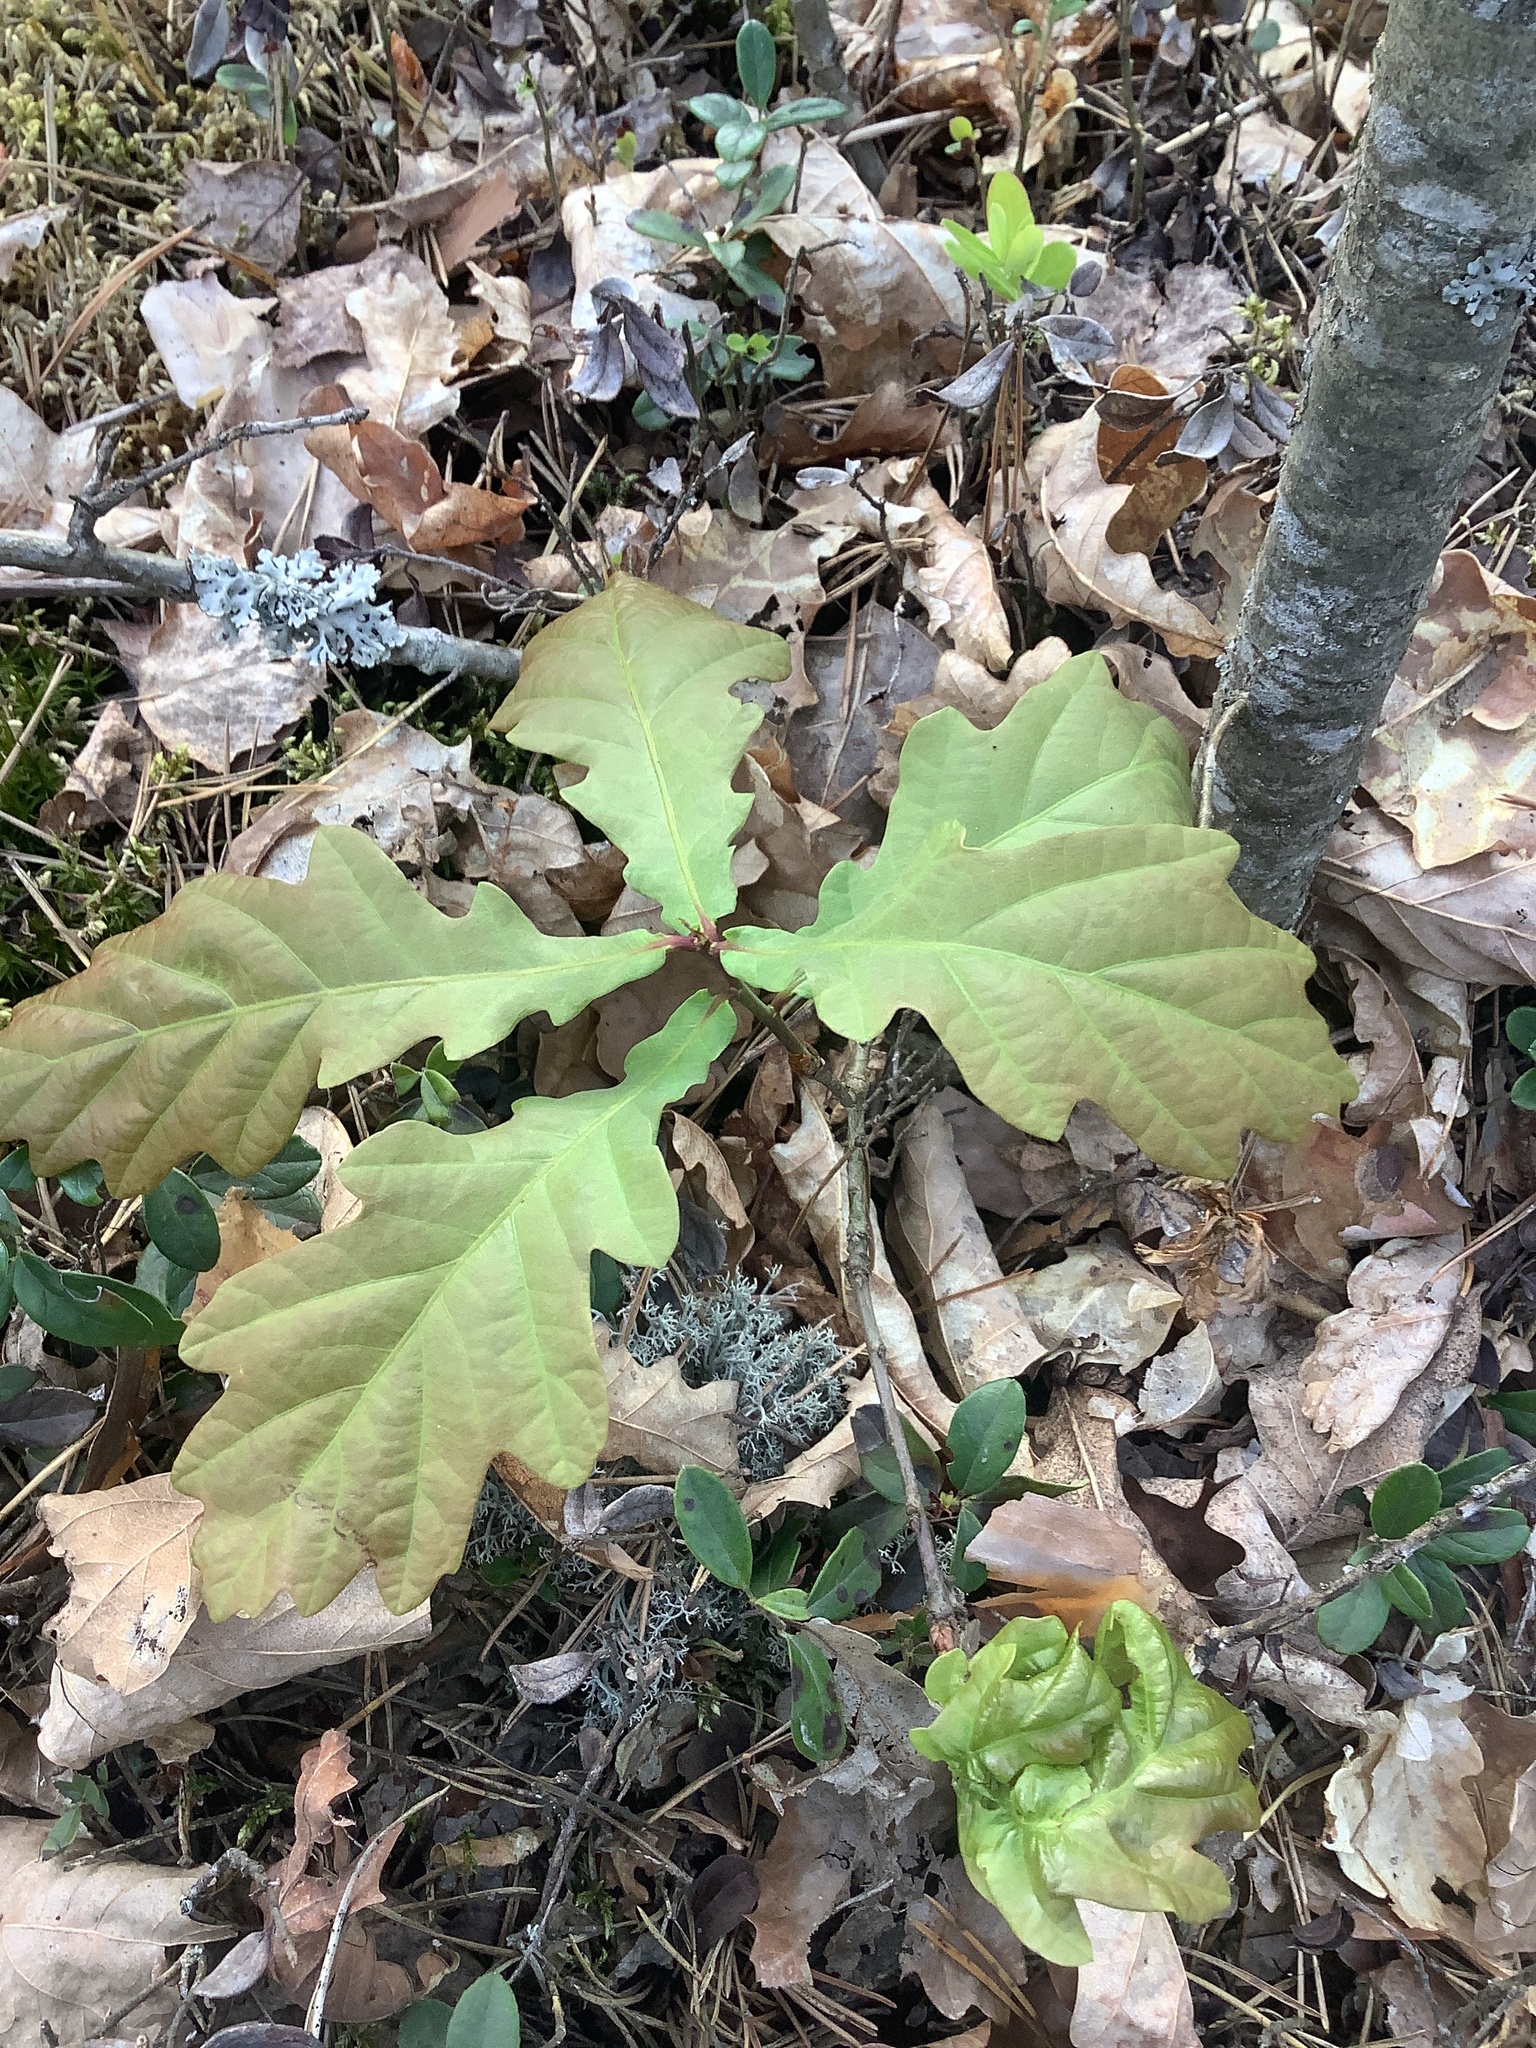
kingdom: Plantae
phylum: Tracheophyta
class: Magnoliopsida
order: Fagales
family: Fagaceae
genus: Quercus
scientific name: Quercus robur
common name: Pedunculate oak
